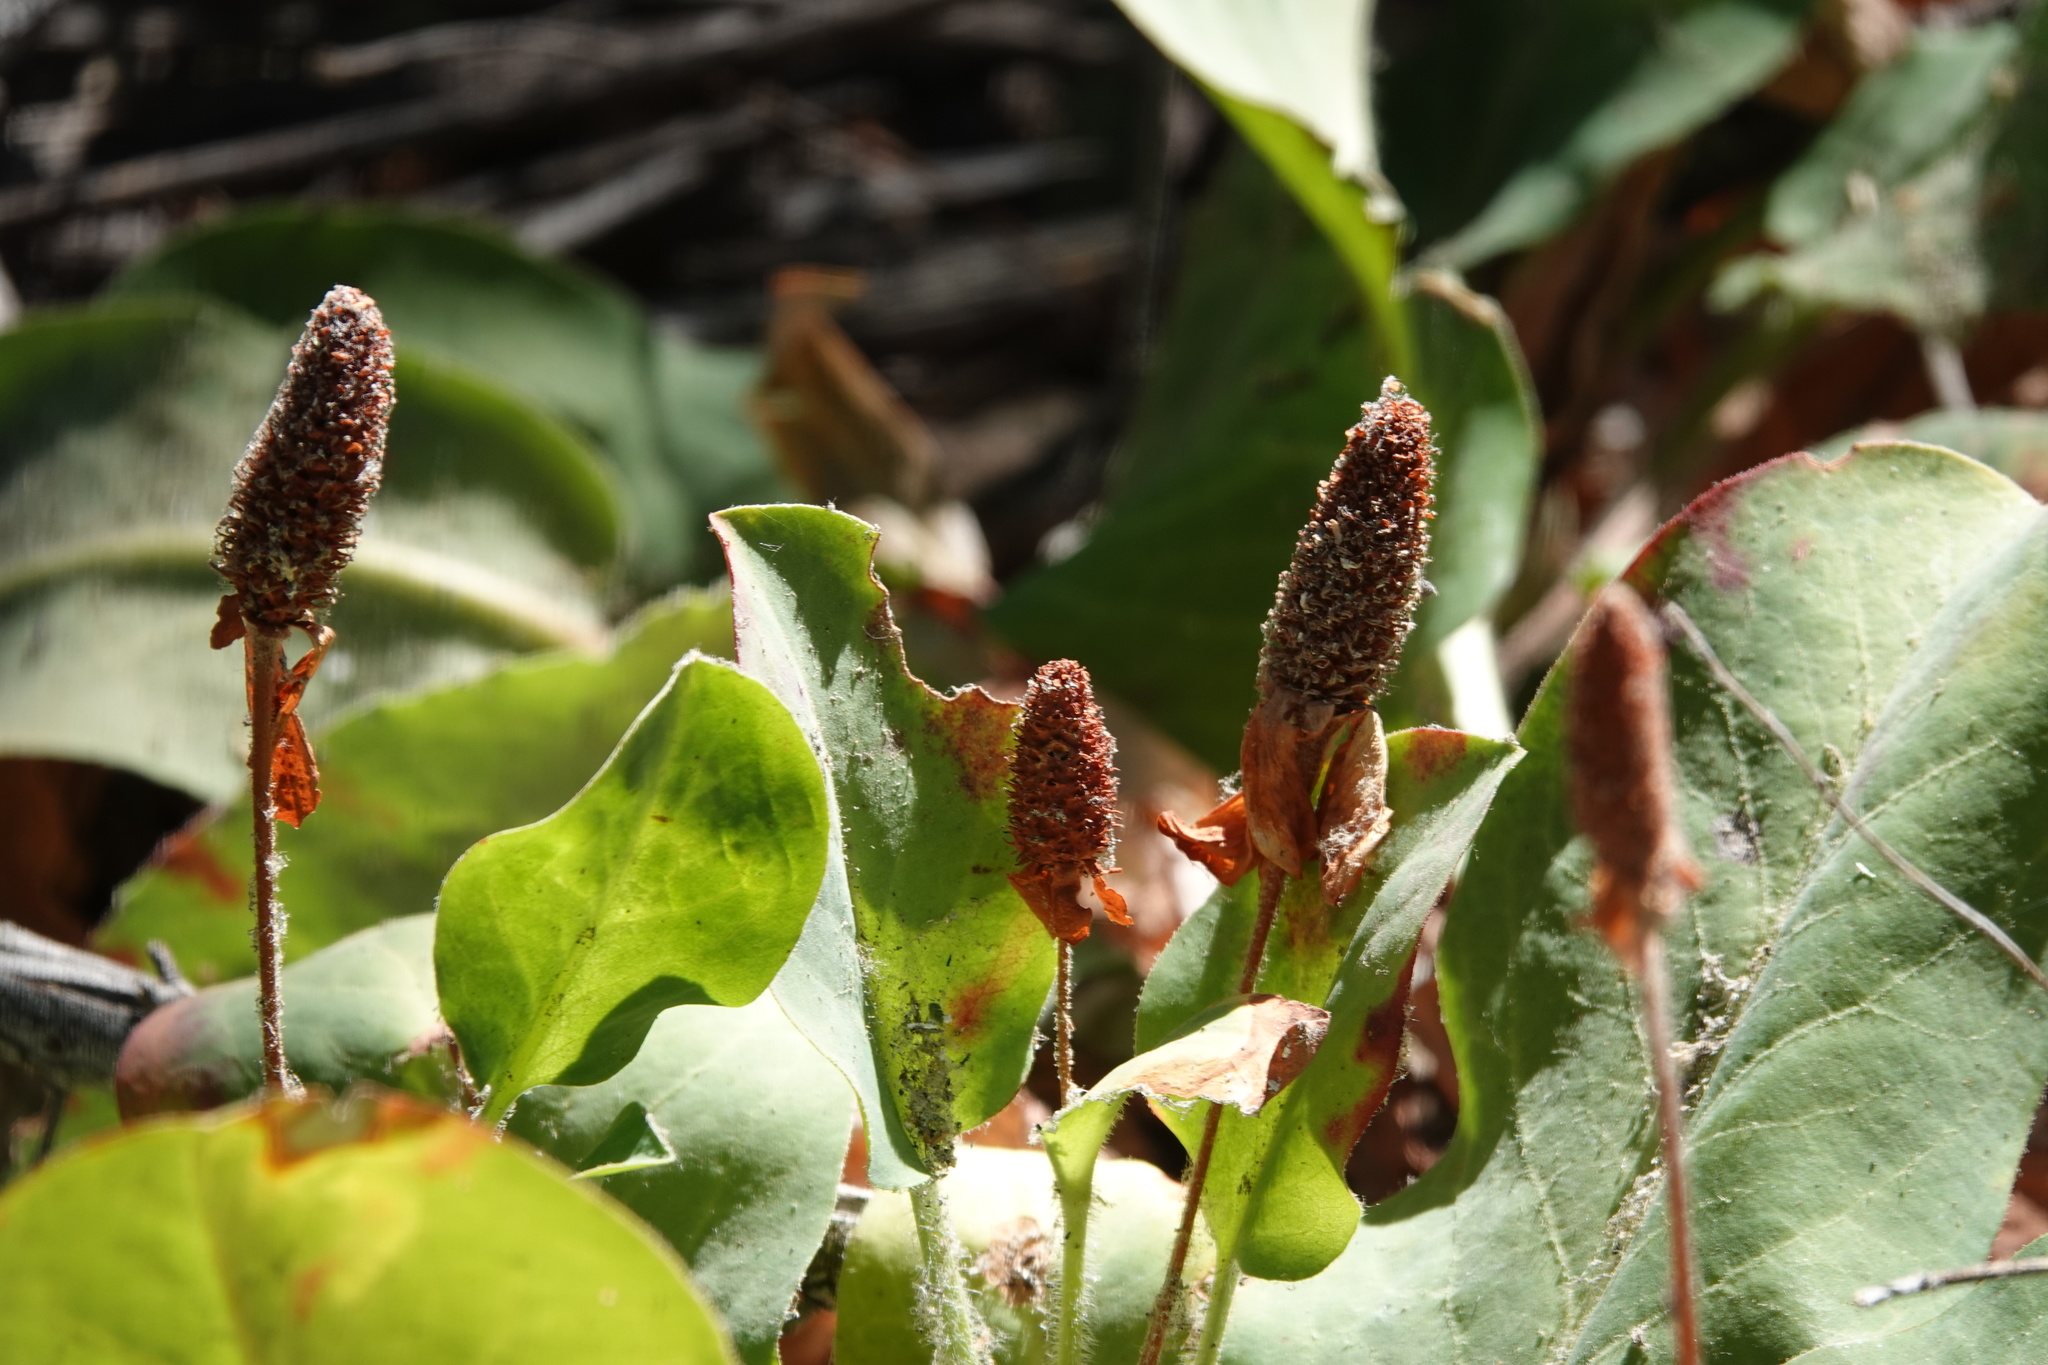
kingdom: Plantae
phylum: Tracheophyta
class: Magnoliopsida
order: Piperales
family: Saururaceae
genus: Anemopsis
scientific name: Anemopsis californica
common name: Apache-beads
